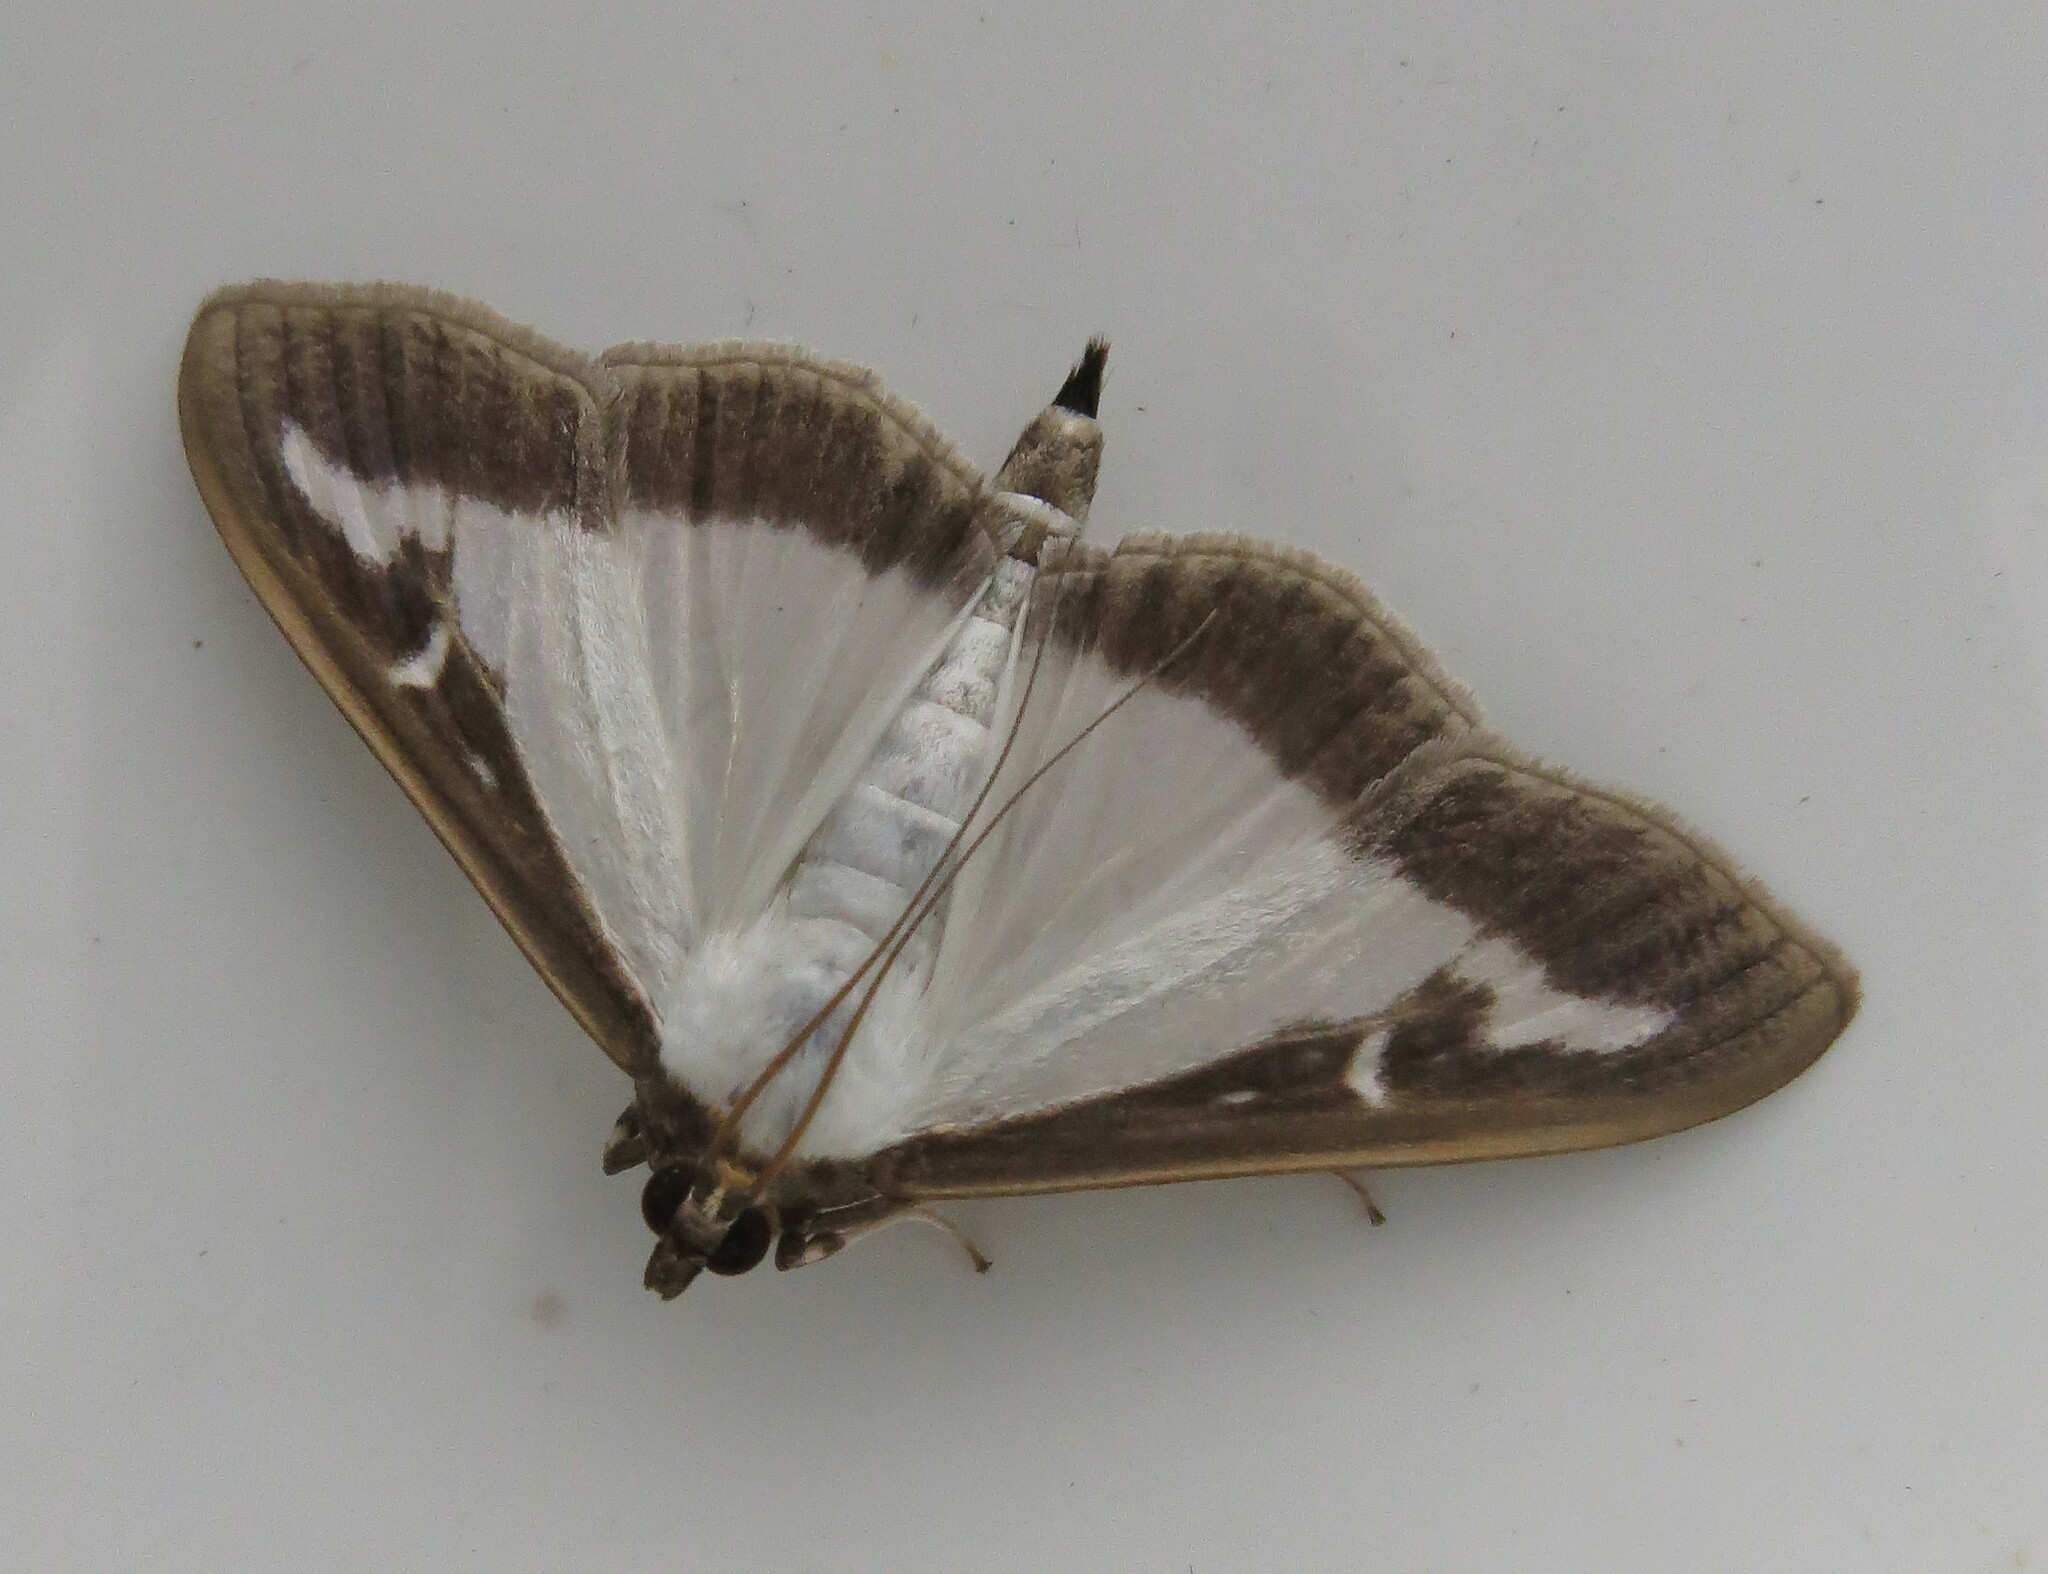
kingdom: Animalia
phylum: Arthropoda
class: Insecta
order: Lepidoptera
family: Crambidae
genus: Cydalima
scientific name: Cydalima perspectalis
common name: Box tree moth
